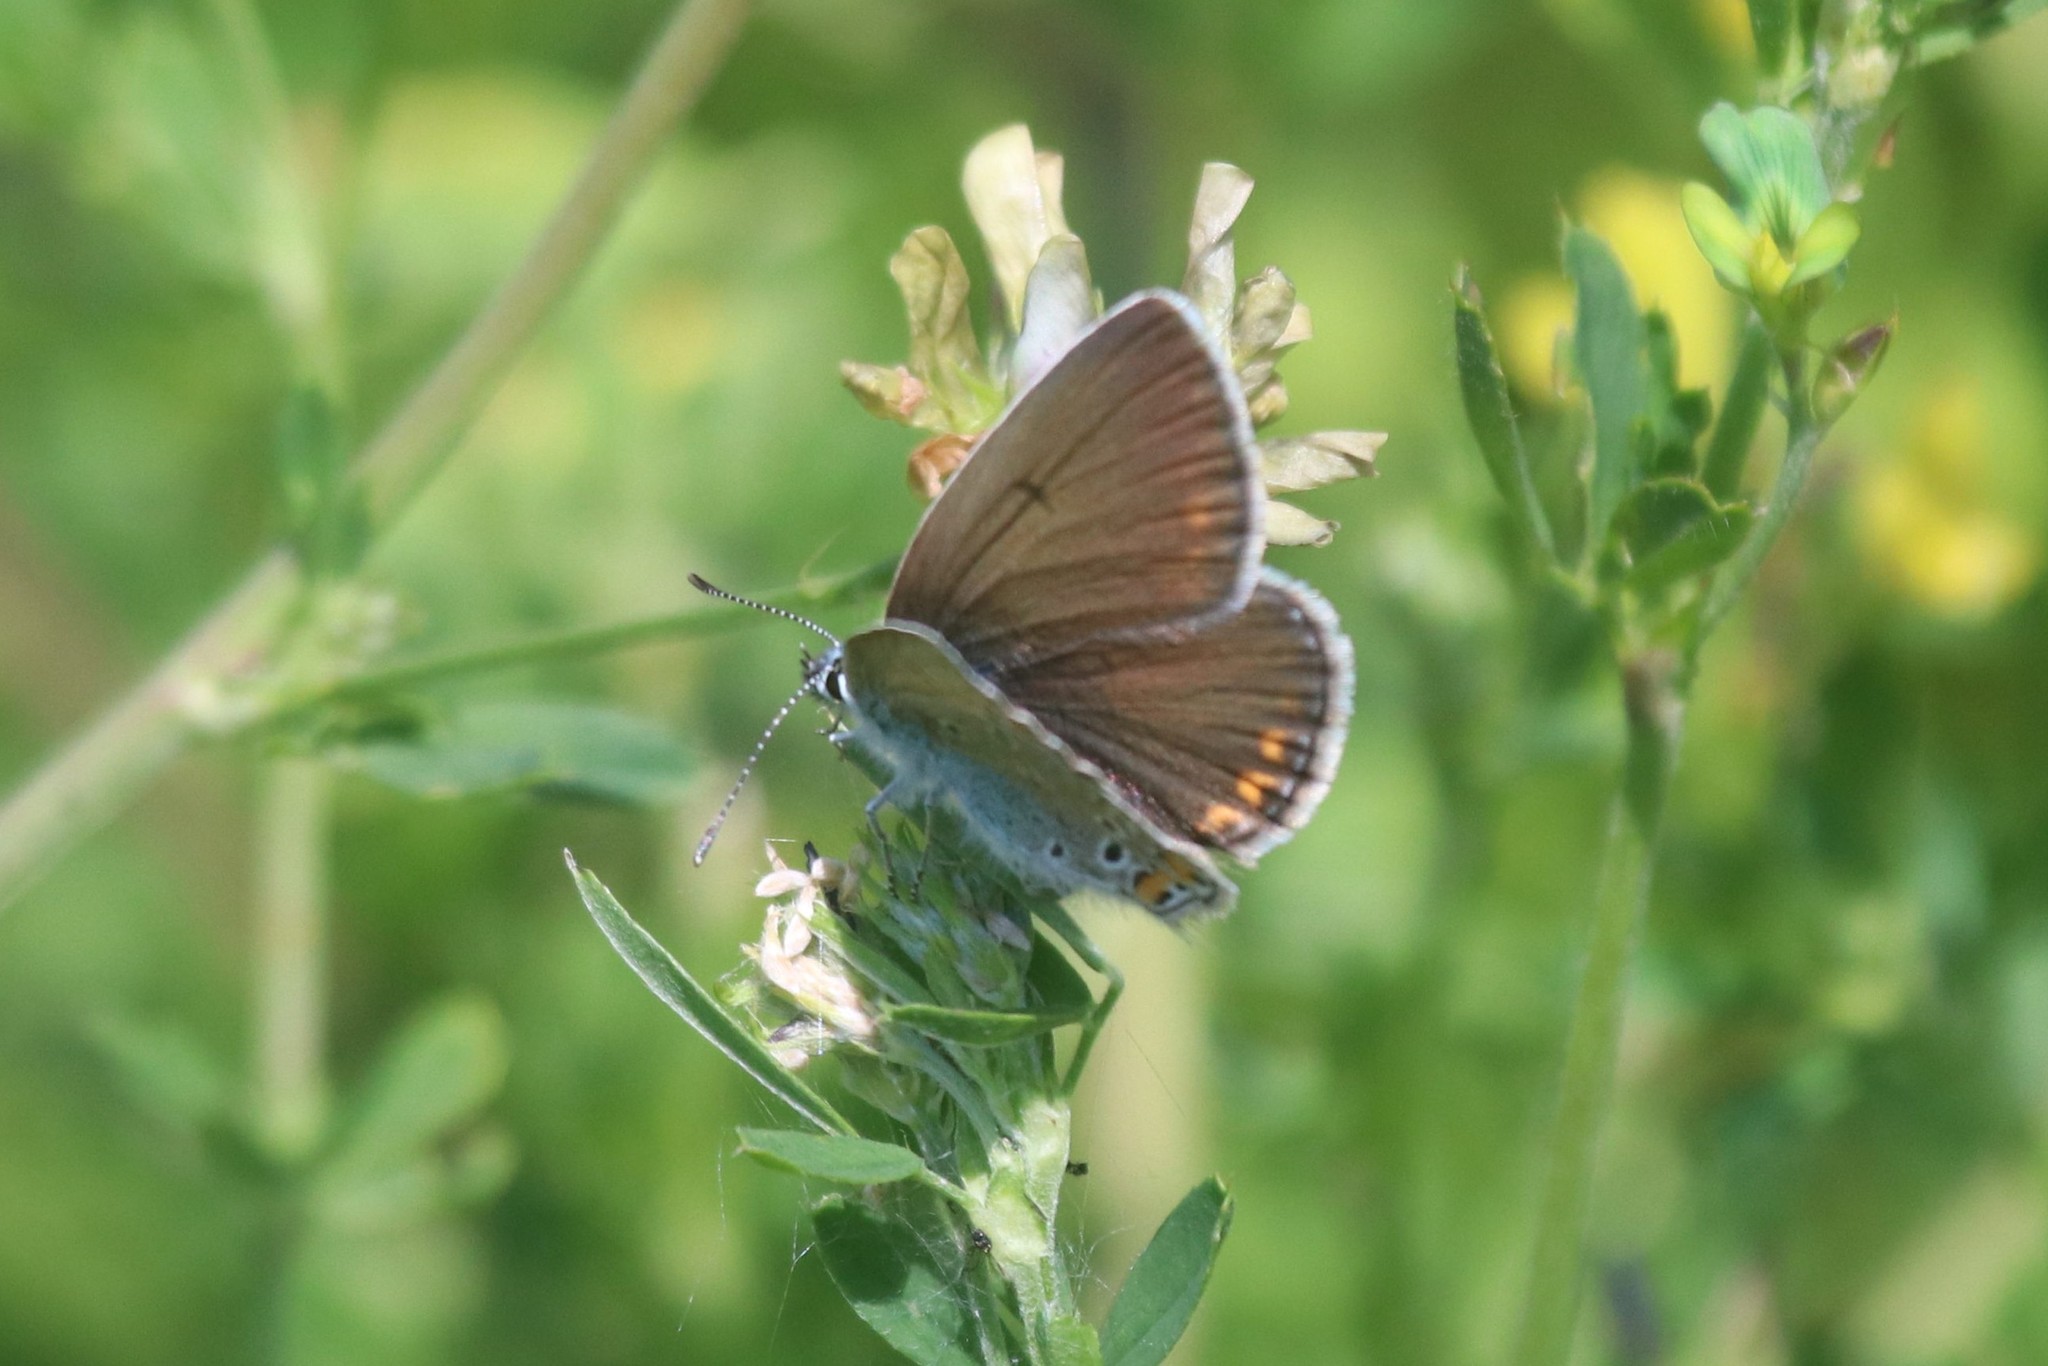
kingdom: Animalia
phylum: Arthropoda
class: Insecta
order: Lepidoptera
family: Lycaenidae
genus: Plebejus
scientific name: Plebejus amanda
